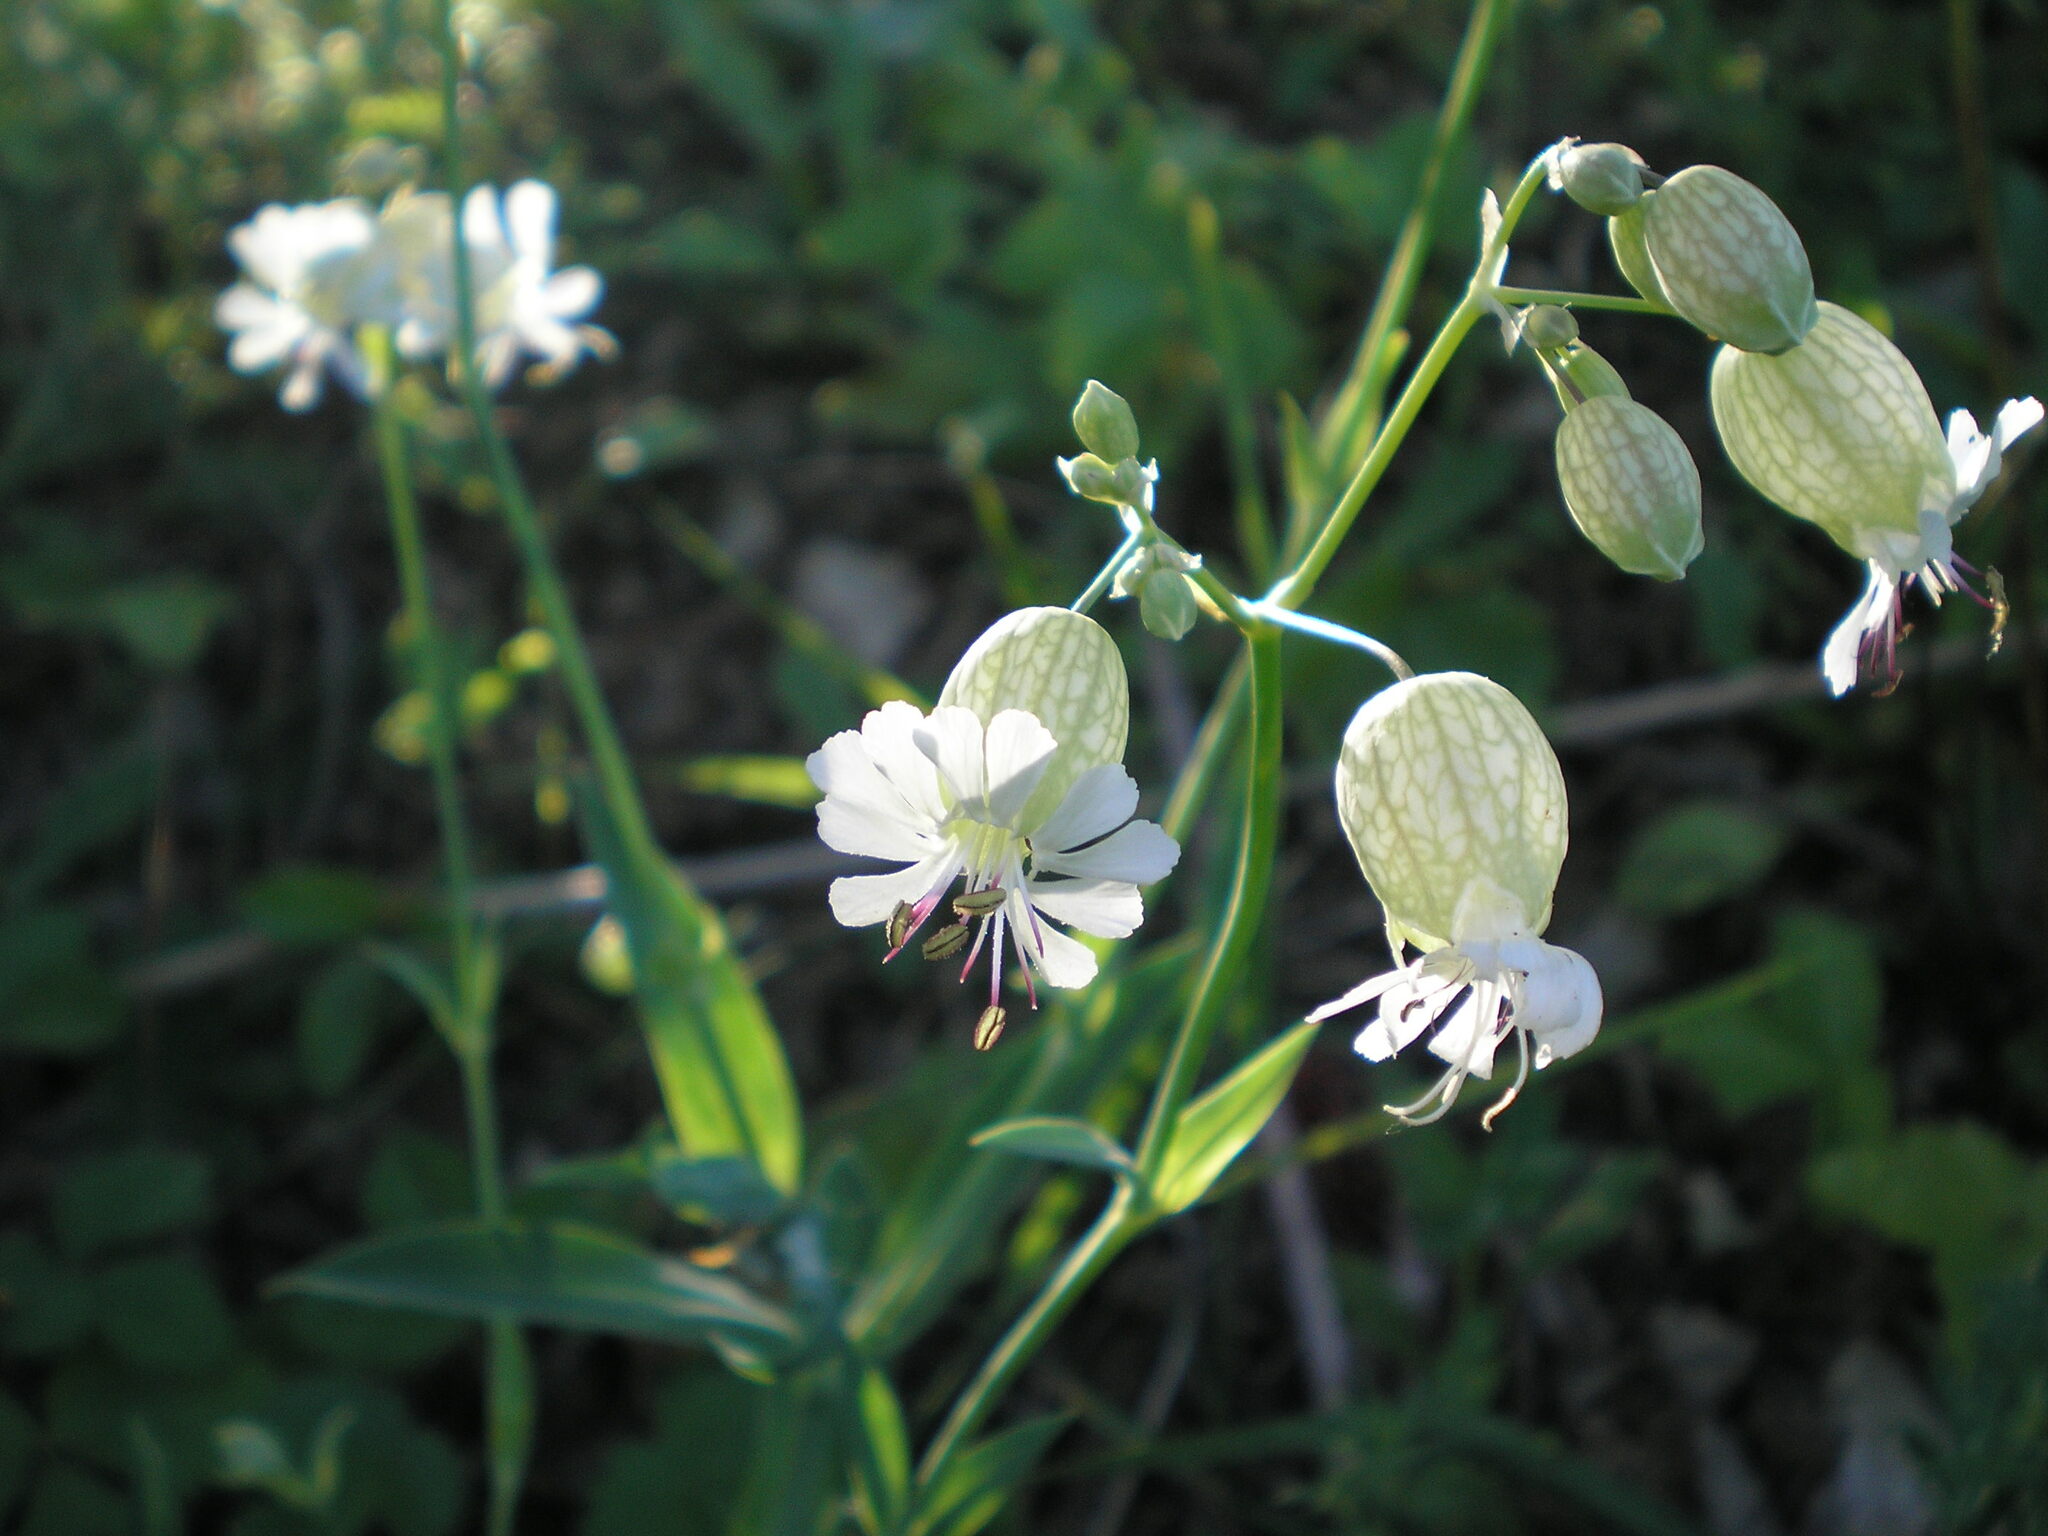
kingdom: Plantae
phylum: Tracheophyta
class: Magnoliopsida
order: Caryophyllales
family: Caryophyllaceae
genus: Silene
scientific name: Silene vulgaris
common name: Bladder campion
